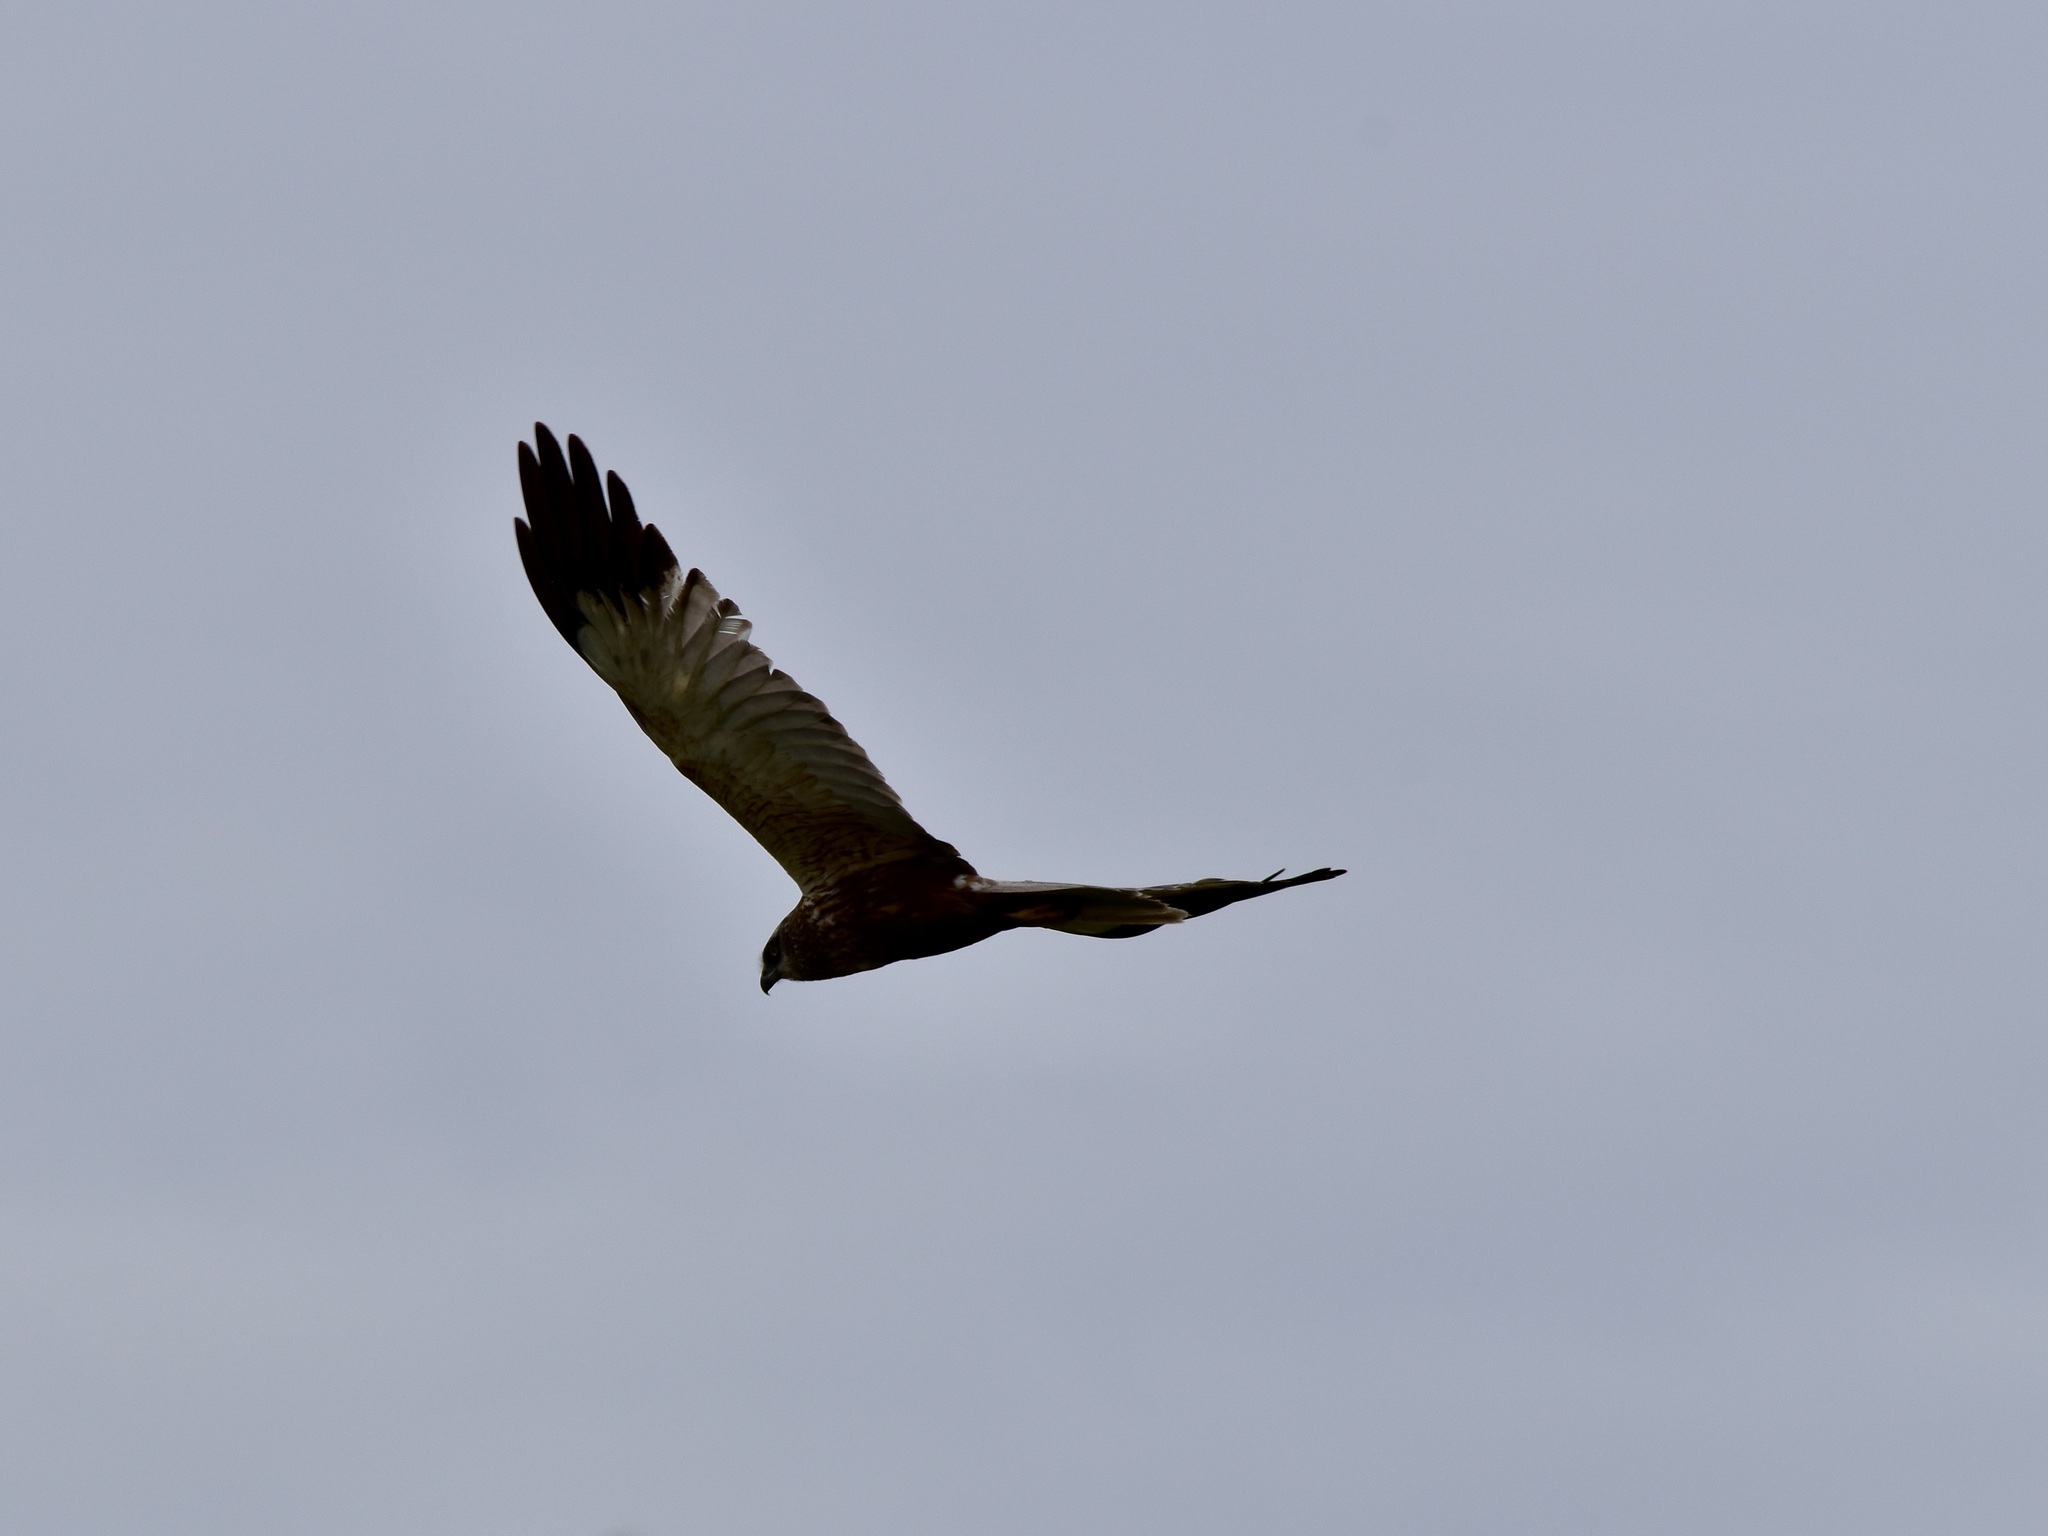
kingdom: Animalia
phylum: Chordata
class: Aves
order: Accipitriformes
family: Accipitridae
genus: Circus
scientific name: Circus aeruginosus
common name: Western marsh harrier
